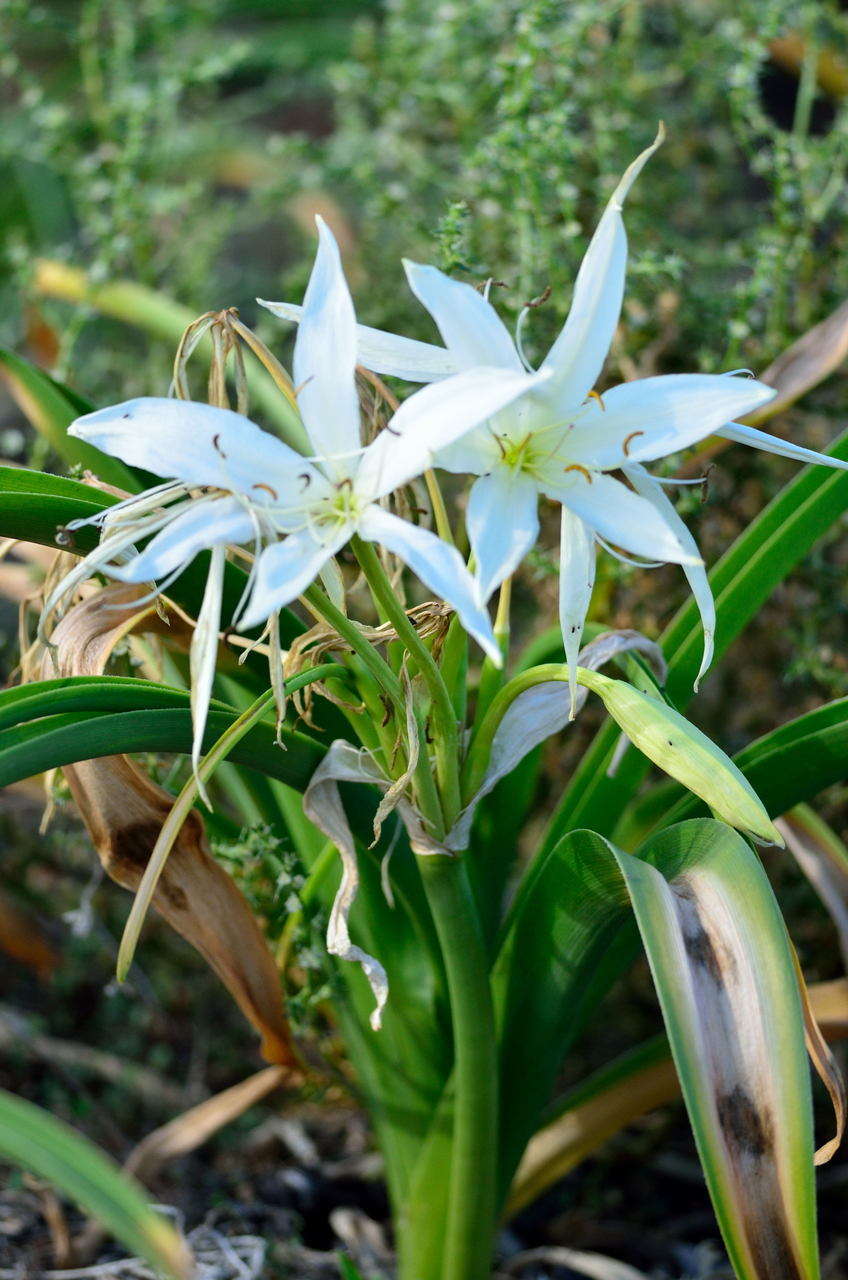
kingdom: Plantae
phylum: Tracheophyta
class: Liliopsida
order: Asparagales
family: Amaryllidaceae
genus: Crinum
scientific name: Crinum flaccidum
